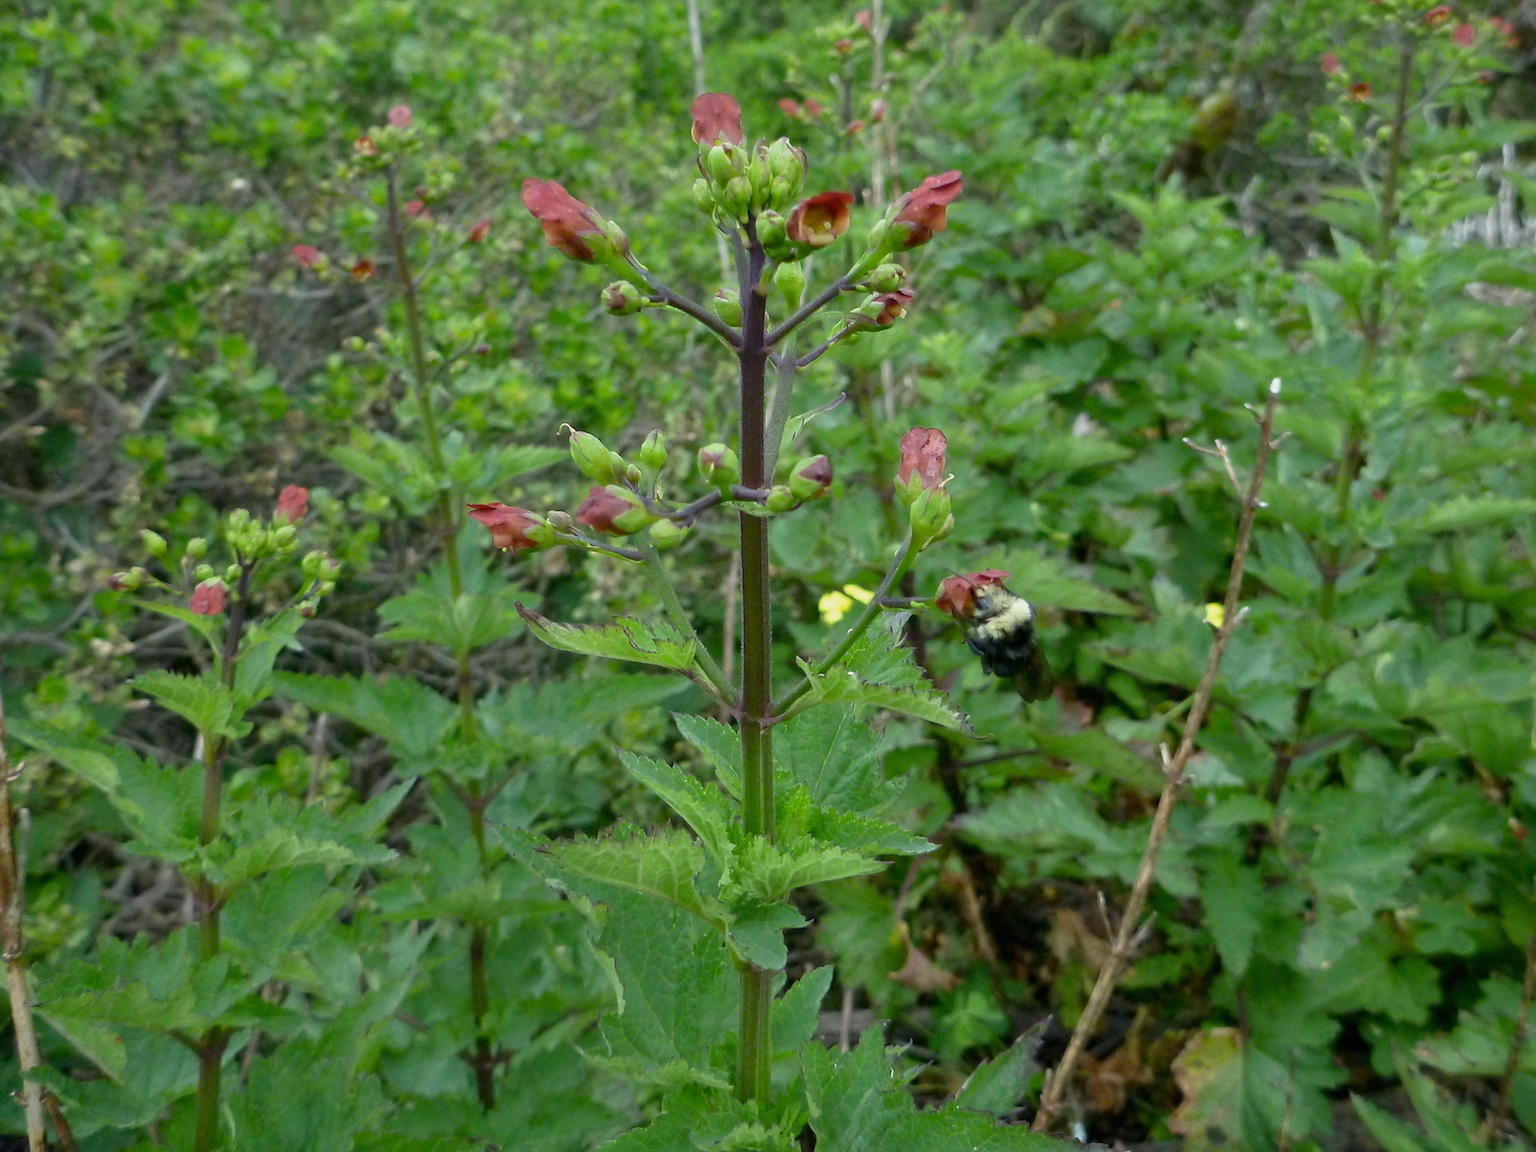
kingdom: Plantae
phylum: Tracheophyta
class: Magnoliopsida
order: Lamiales
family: Scrophulariaceae
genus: Scrophularia
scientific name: Scrophularia californica
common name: California figwort
